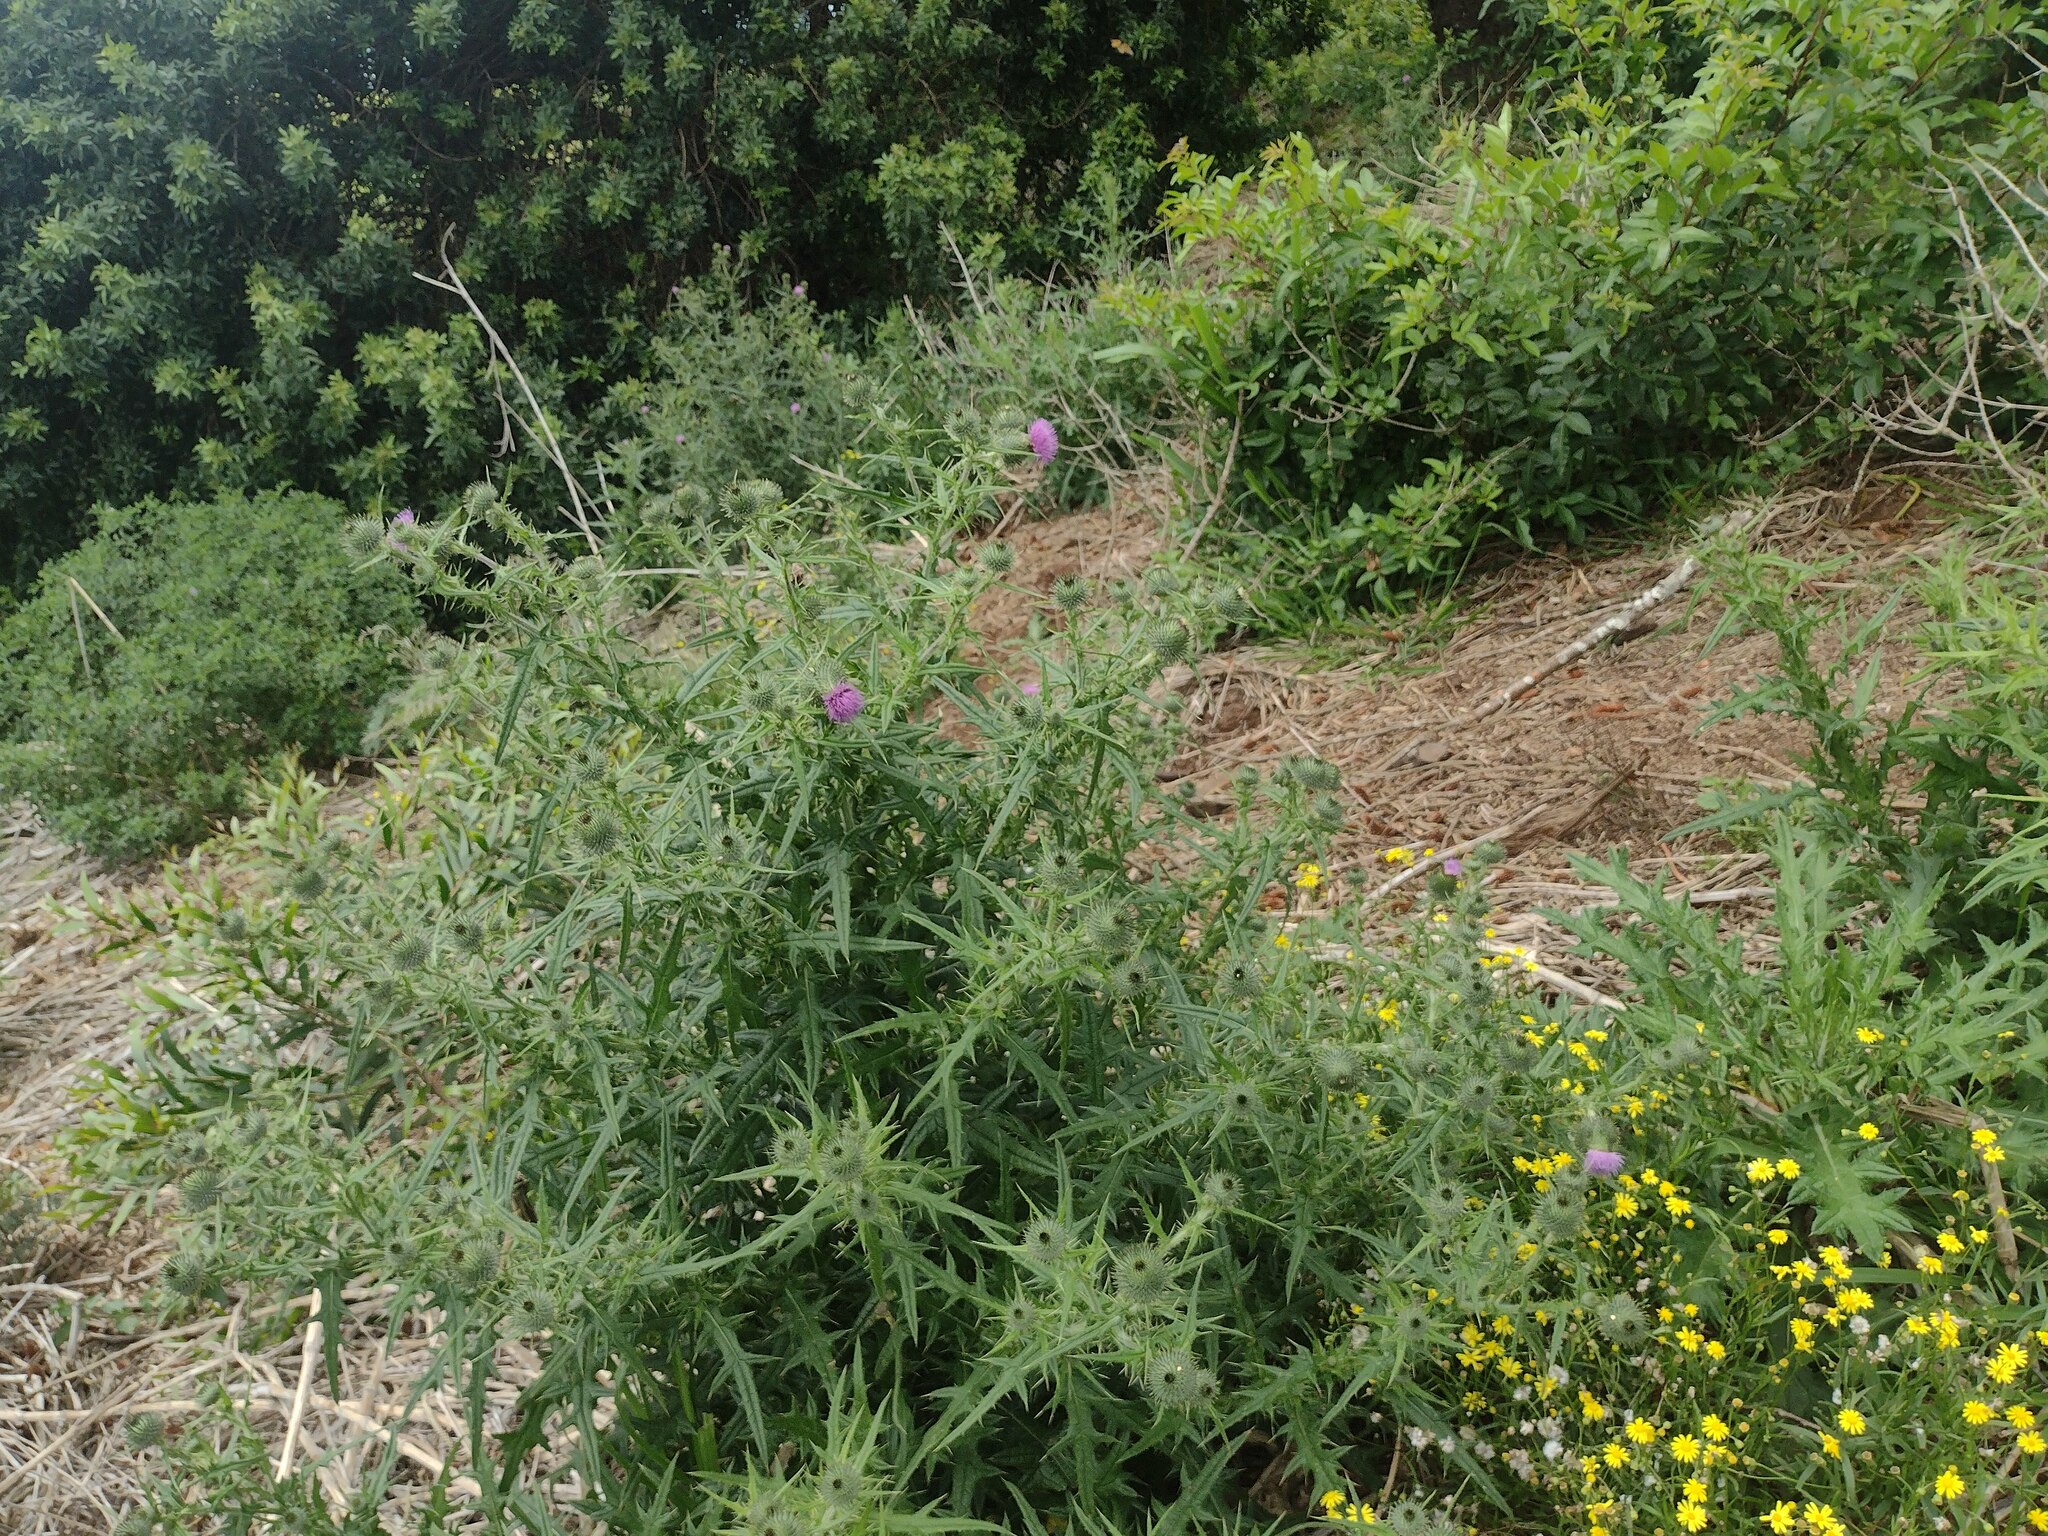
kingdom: Plantae
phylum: Tracheophyta
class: Magnoliopsida
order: Asterales
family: Asteraceae
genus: Cirsium
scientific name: Cirsium vulgare
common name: Bull thistle
